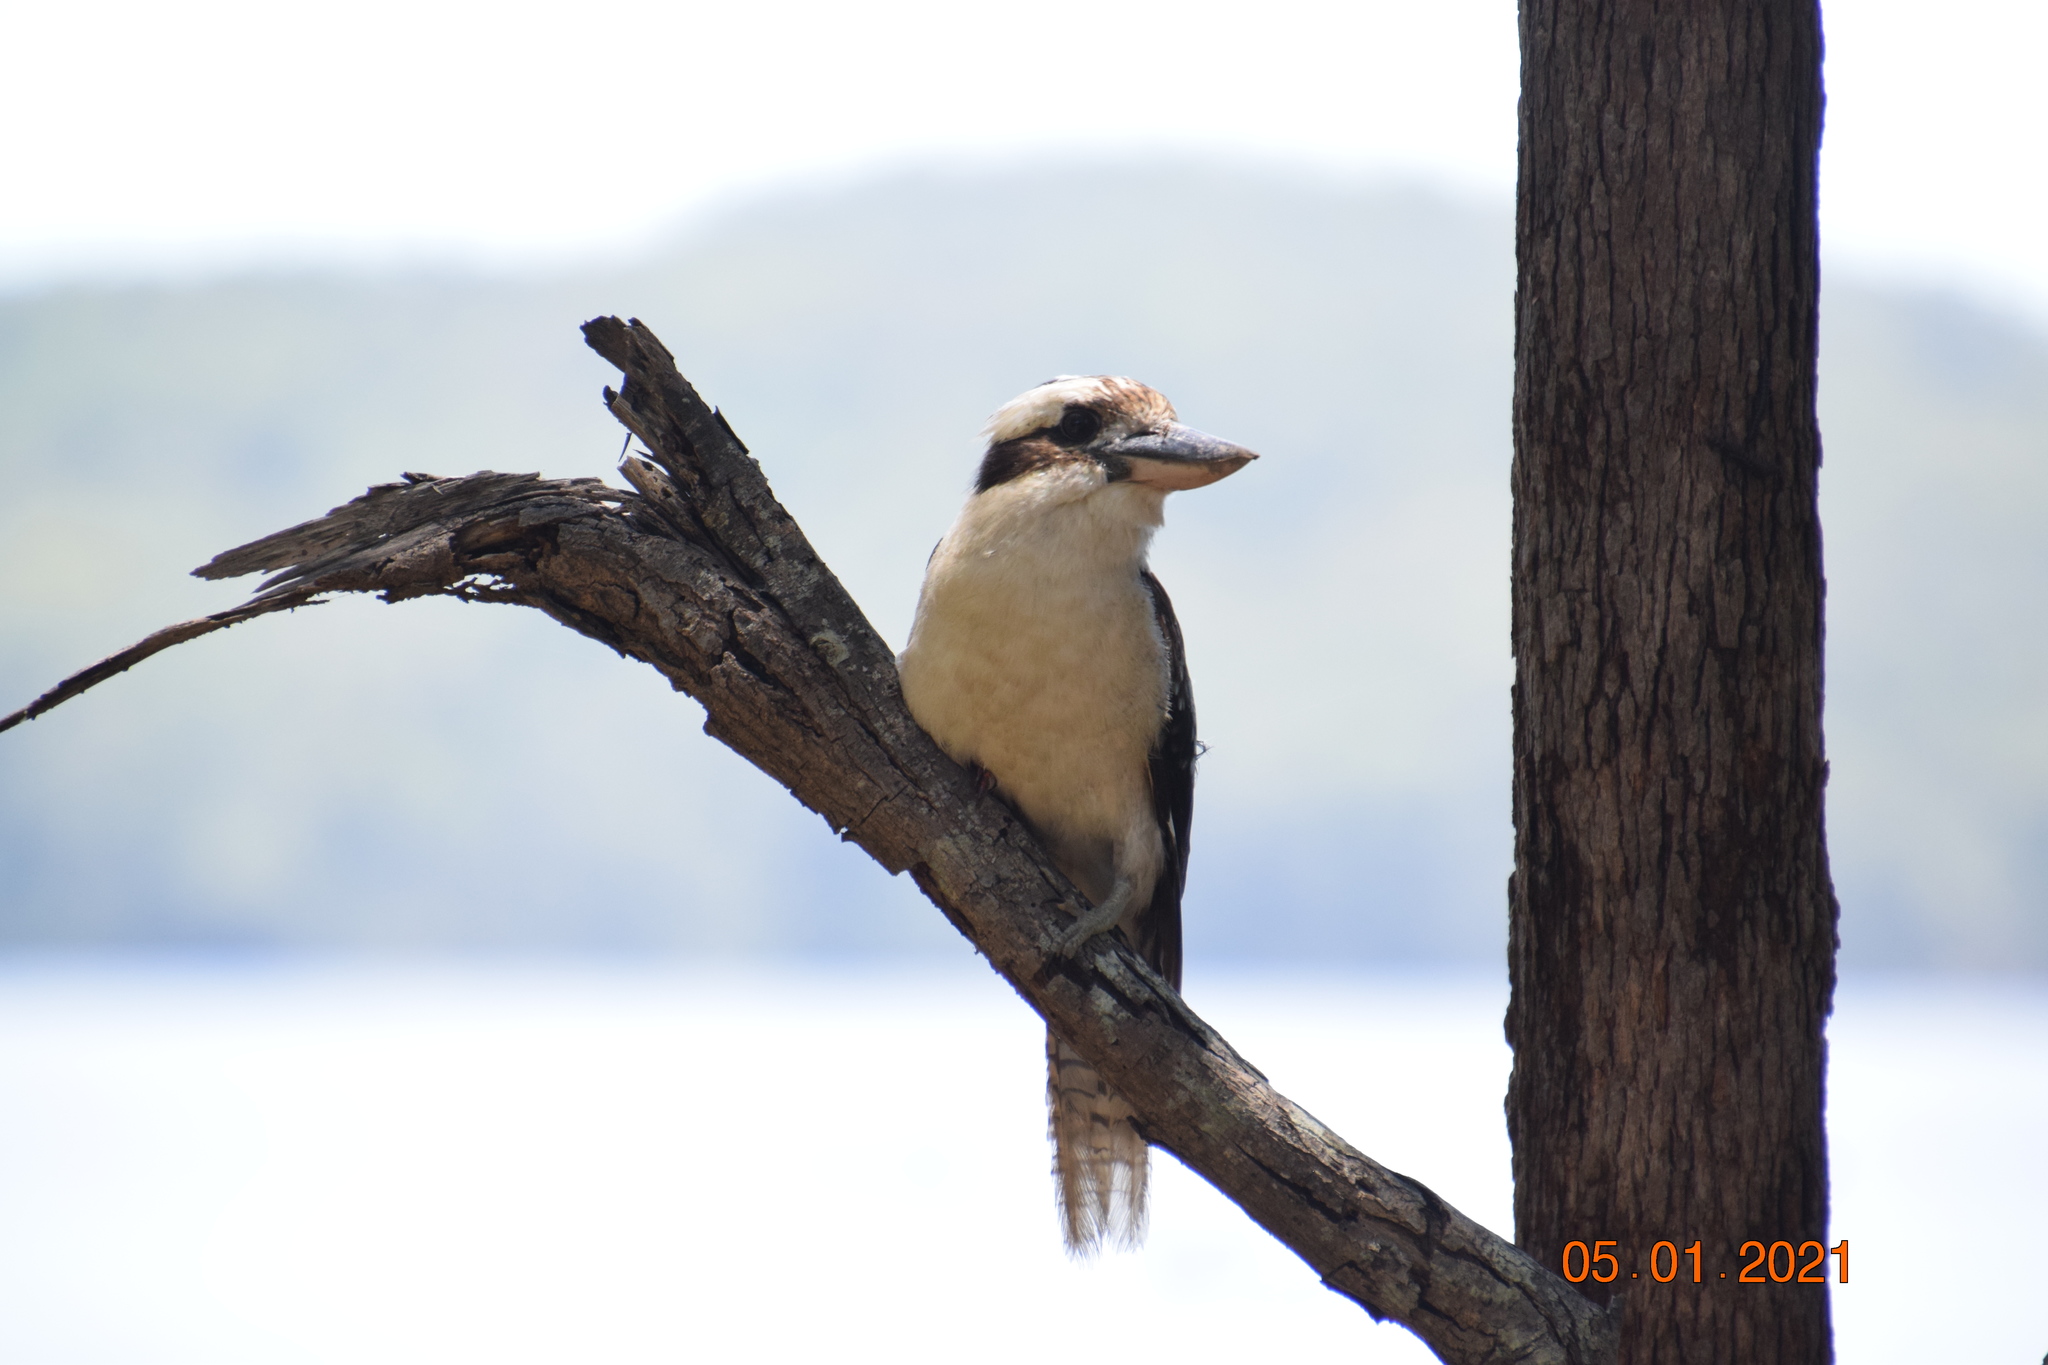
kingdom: Animalia
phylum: Chordata
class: Aves
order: Coraciiformes
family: Alcedinidae
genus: Dacelo
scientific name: Dacelo novaeguineae
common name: Laughing kookaburra
